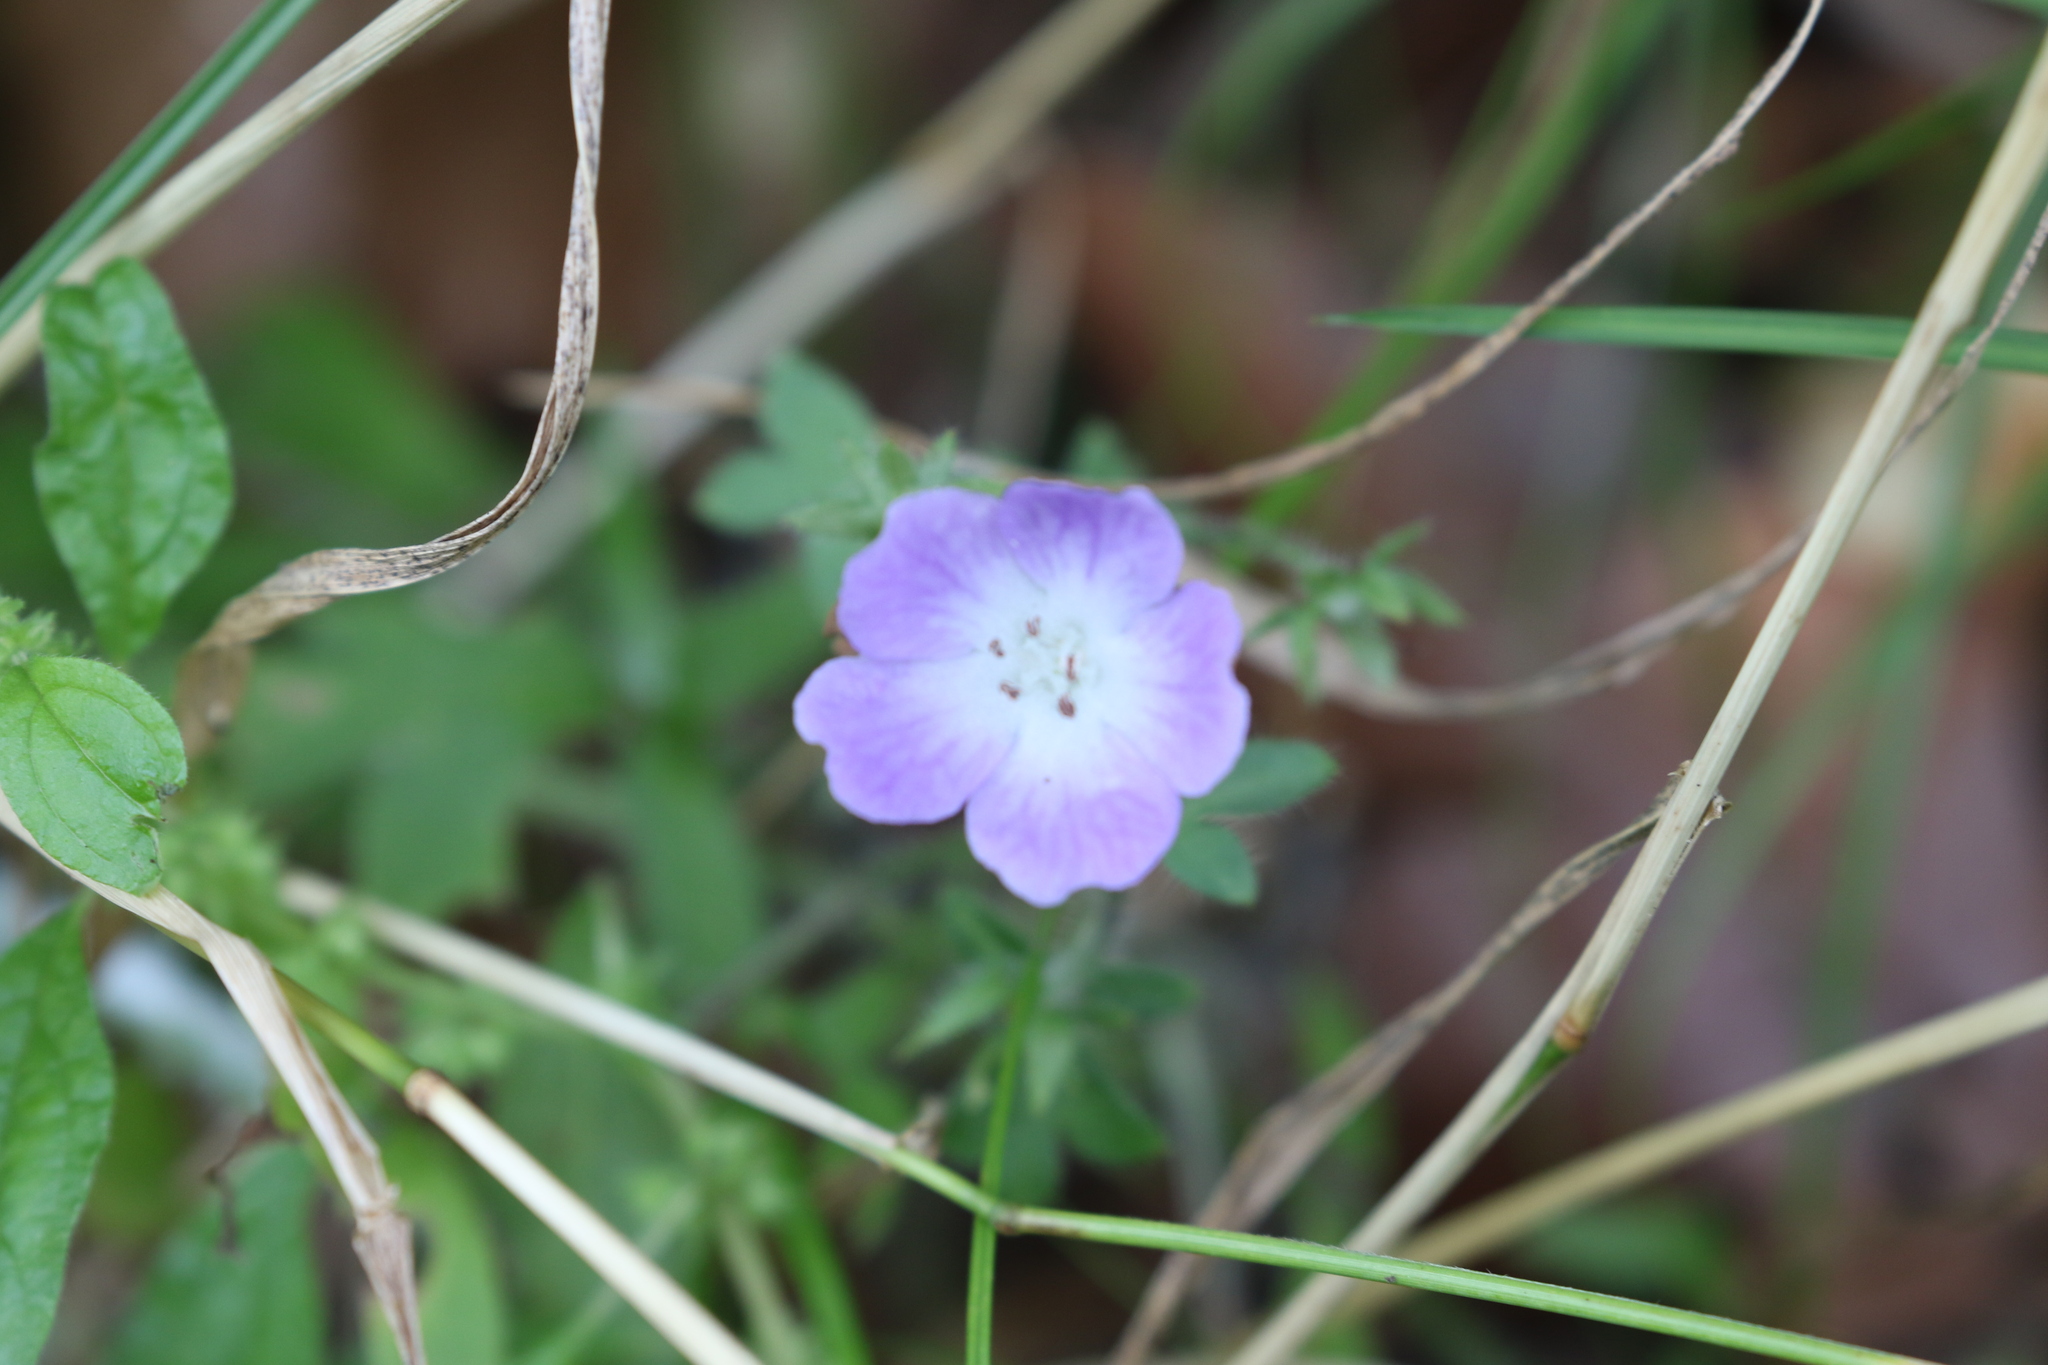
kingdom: Plantae
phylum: Tracheophyta
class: Magnoliopsida
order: Boraginales
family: Hydrophyllaceae
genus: Nemophila
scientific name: Nemophila phacelioides
